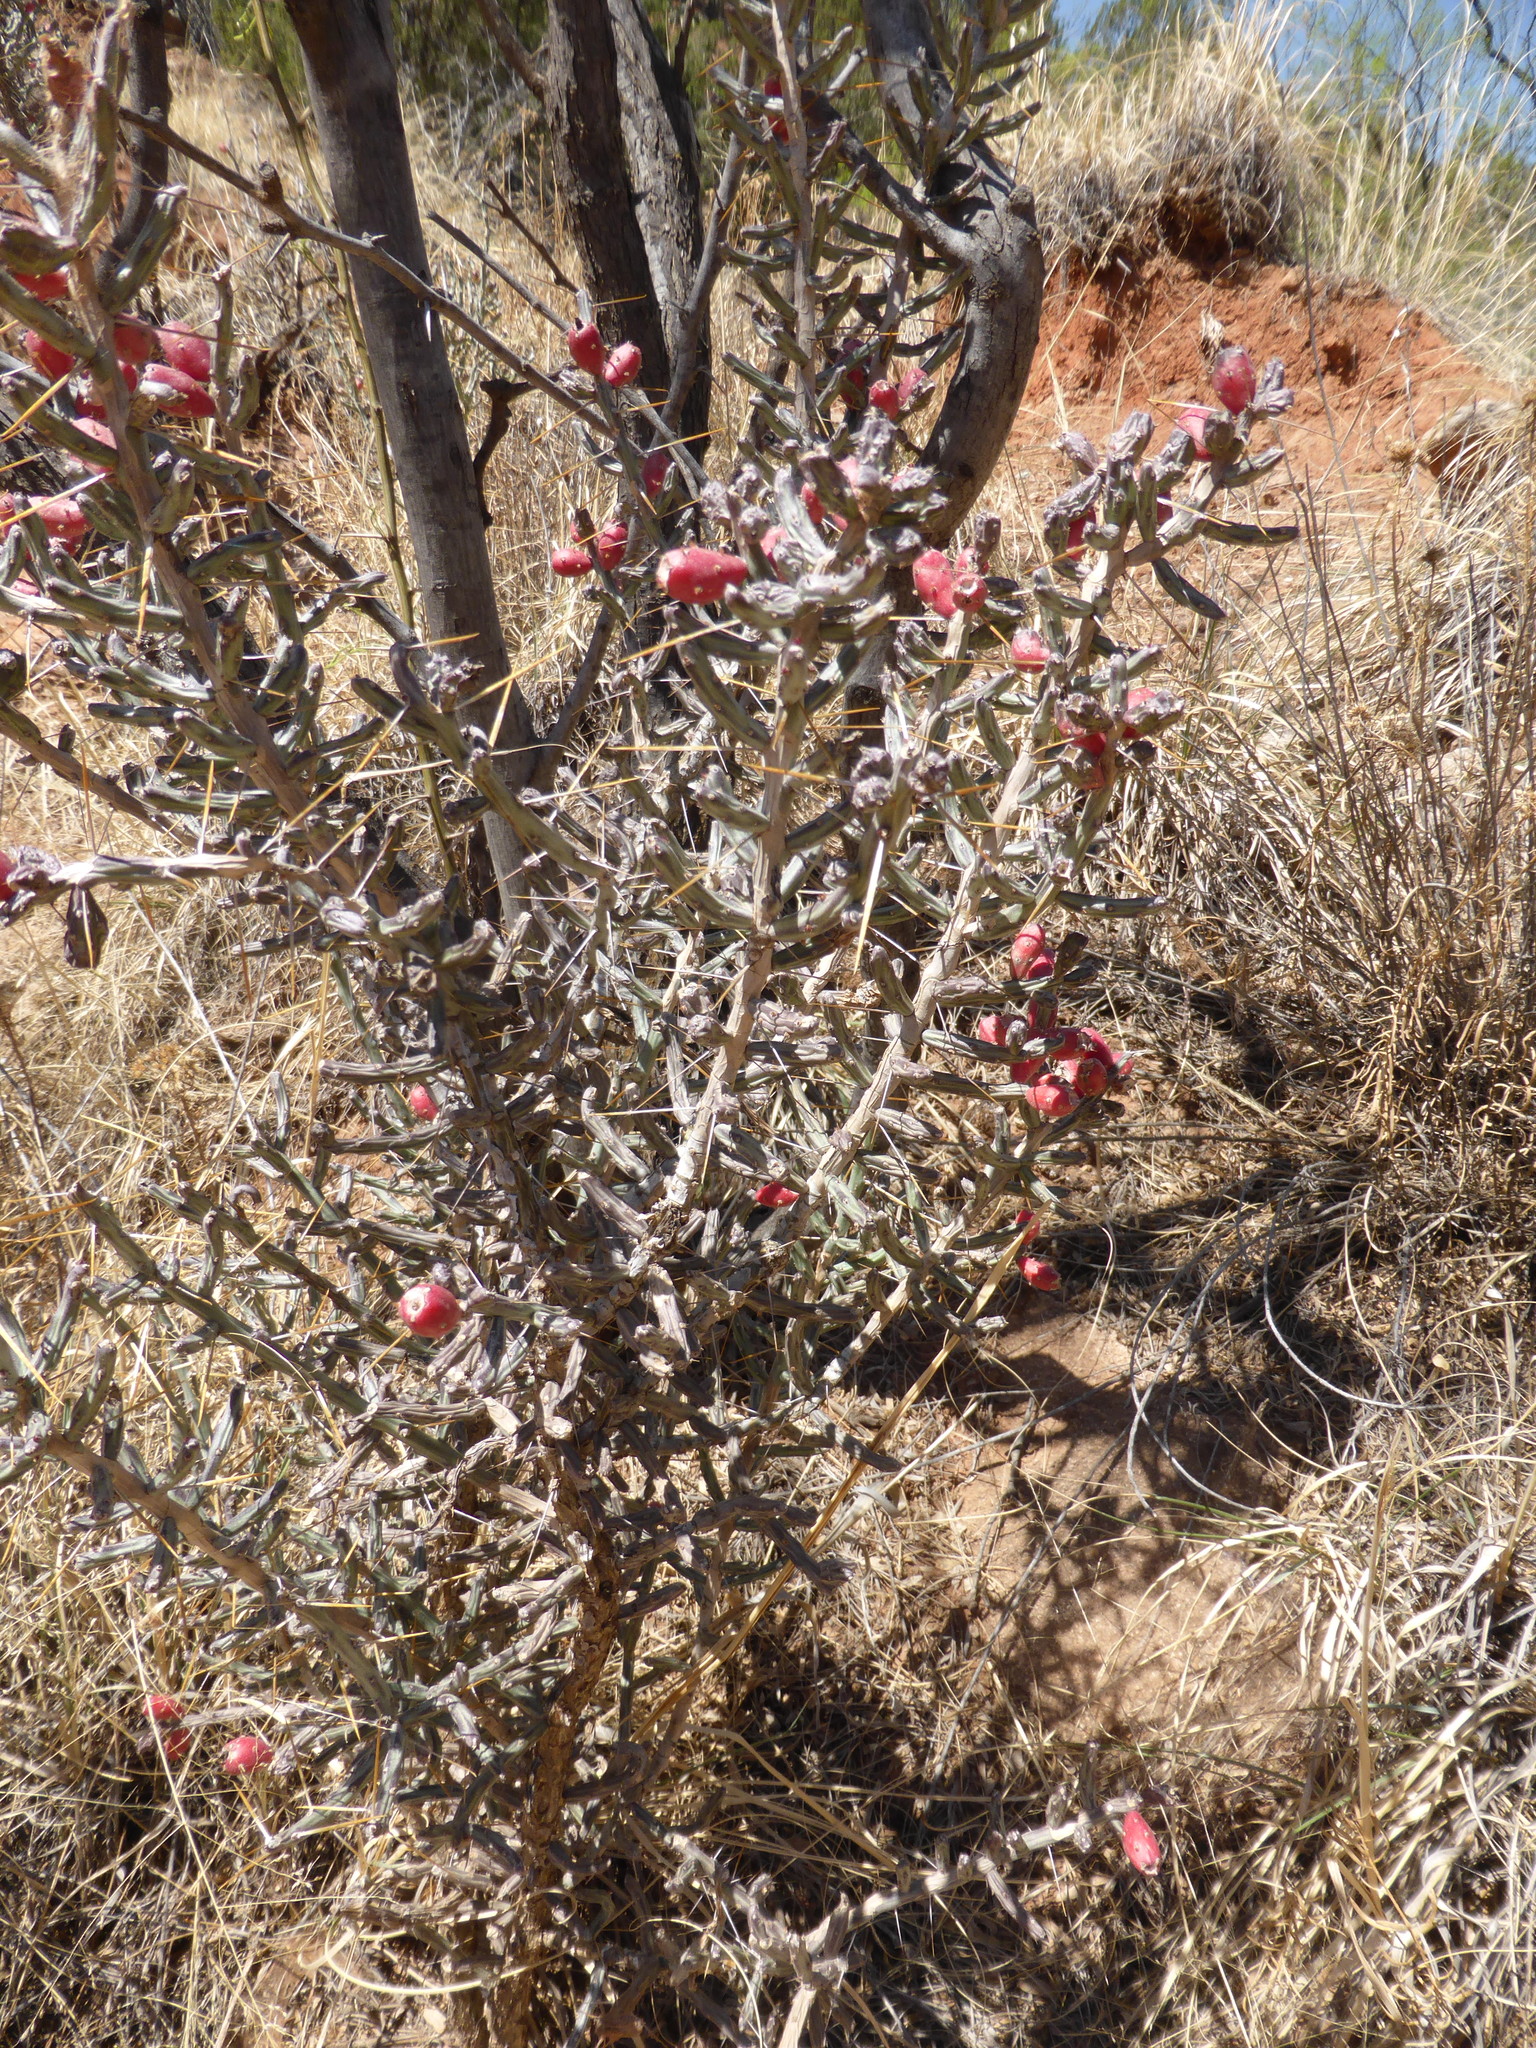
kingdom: Plantae
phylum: Tracheophyta
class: Magnoliopsida
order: Caryophyllales
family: Cactaceae
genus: Cylindropuntia
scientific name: Cylindropuntia leptocaulis
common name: Christmas cactus
